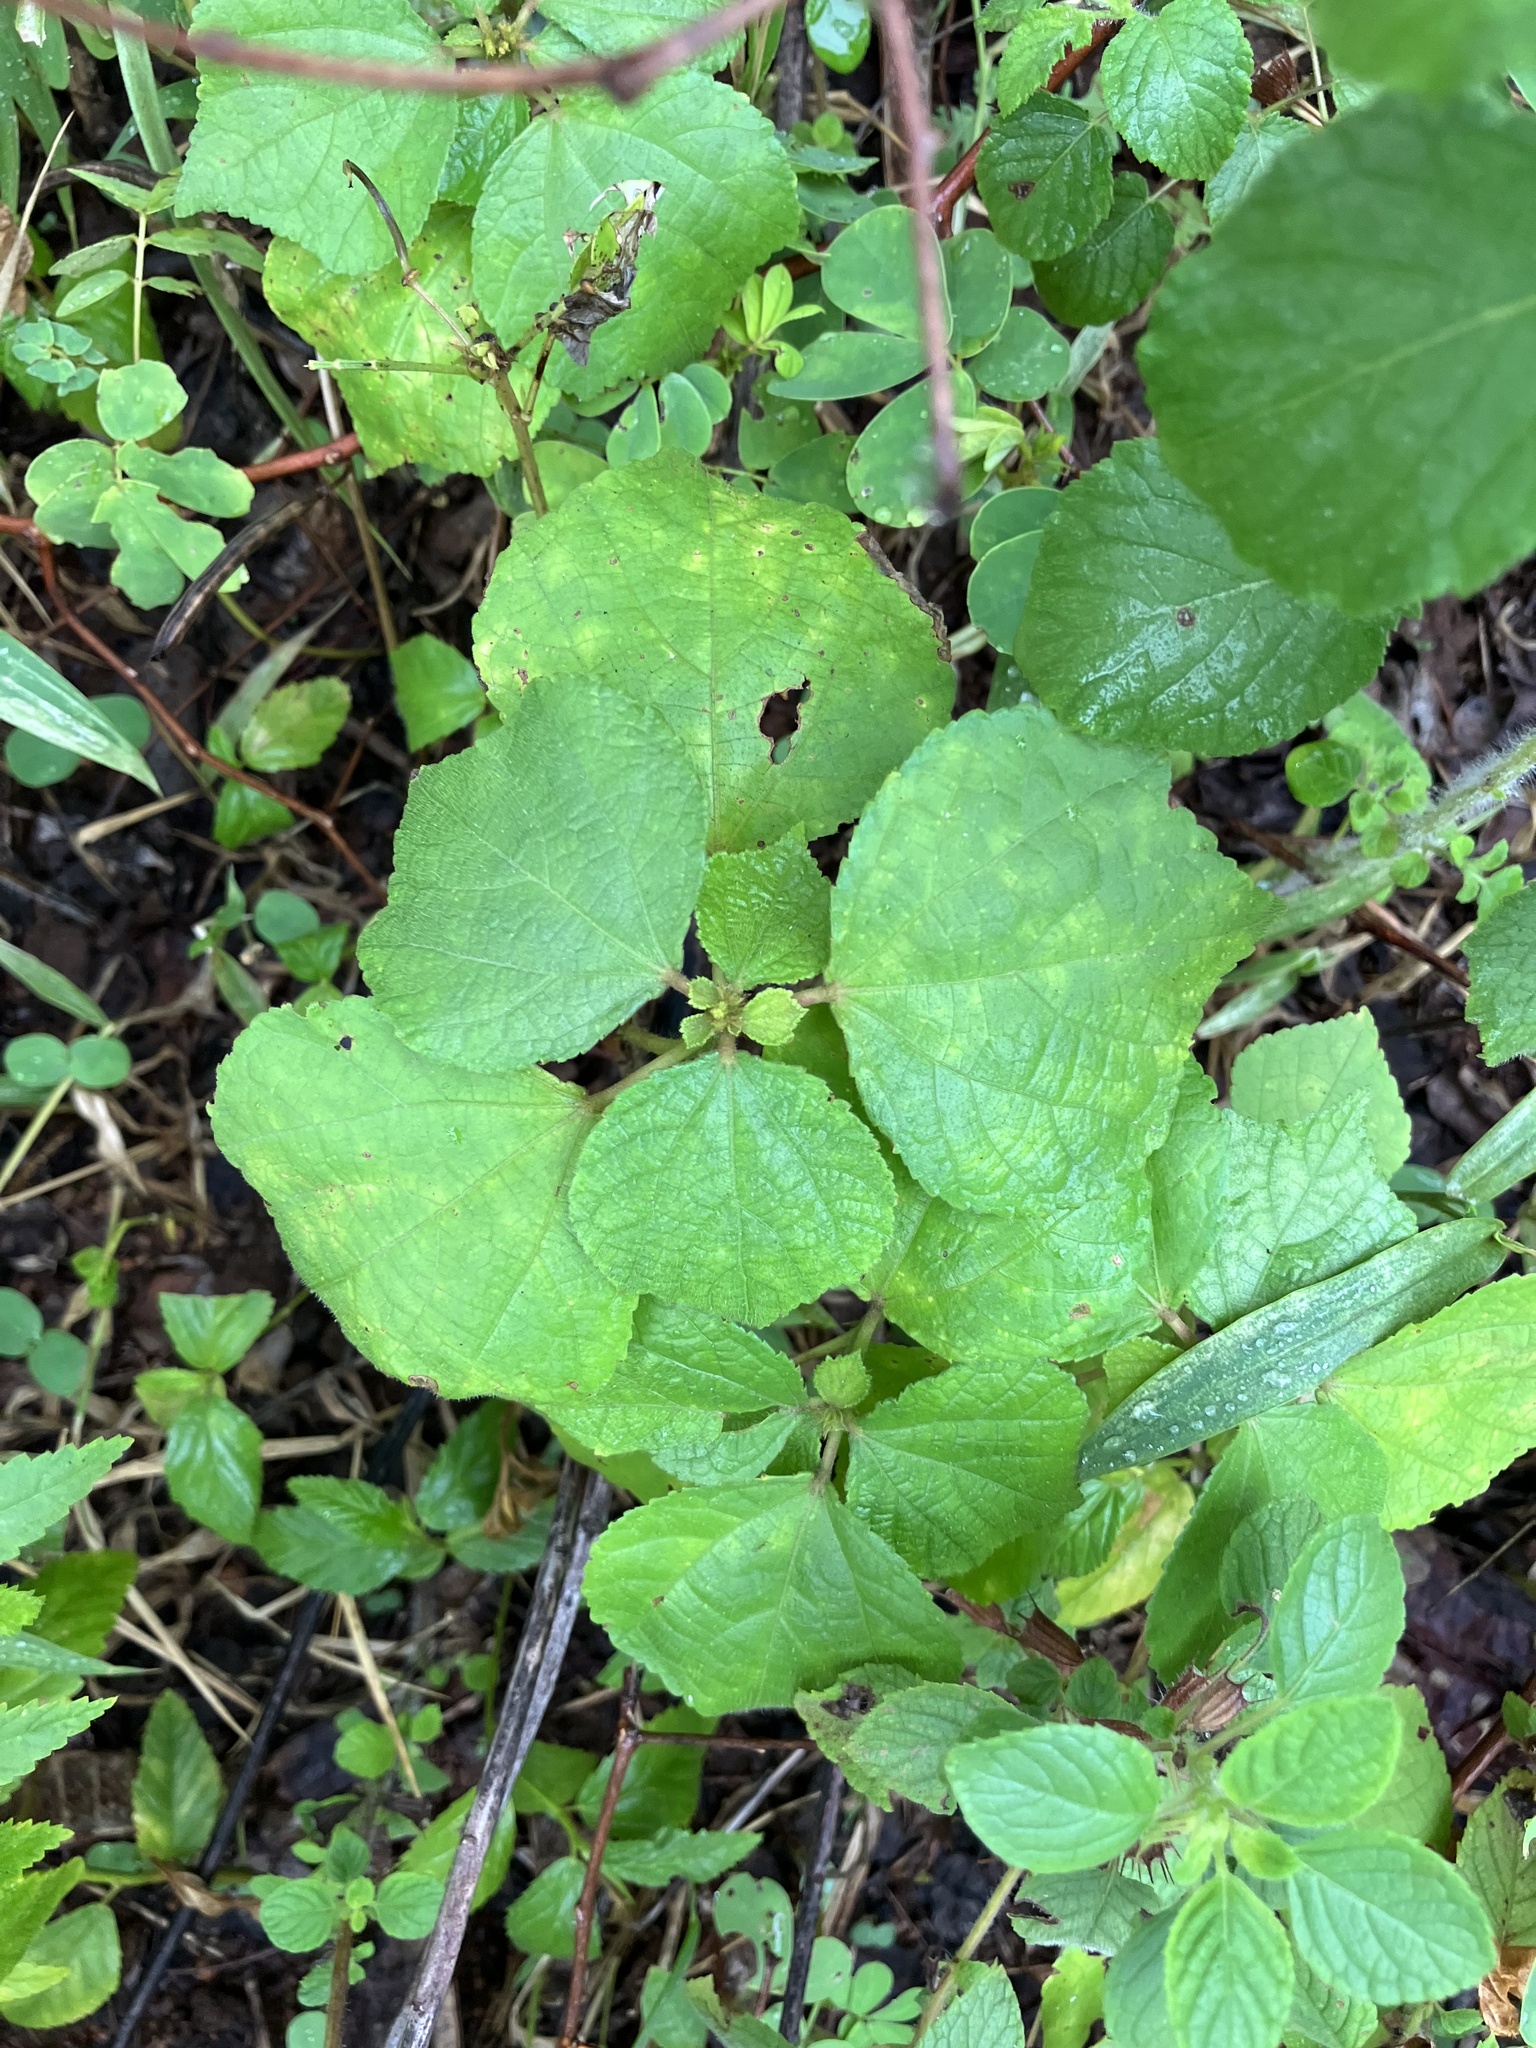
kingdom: Plantae
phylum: Tracheophyta
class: Magnoliopsida
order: Malvales
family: Malvaceae
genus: Urena
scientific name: Urena lobata
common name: Caesarweed
